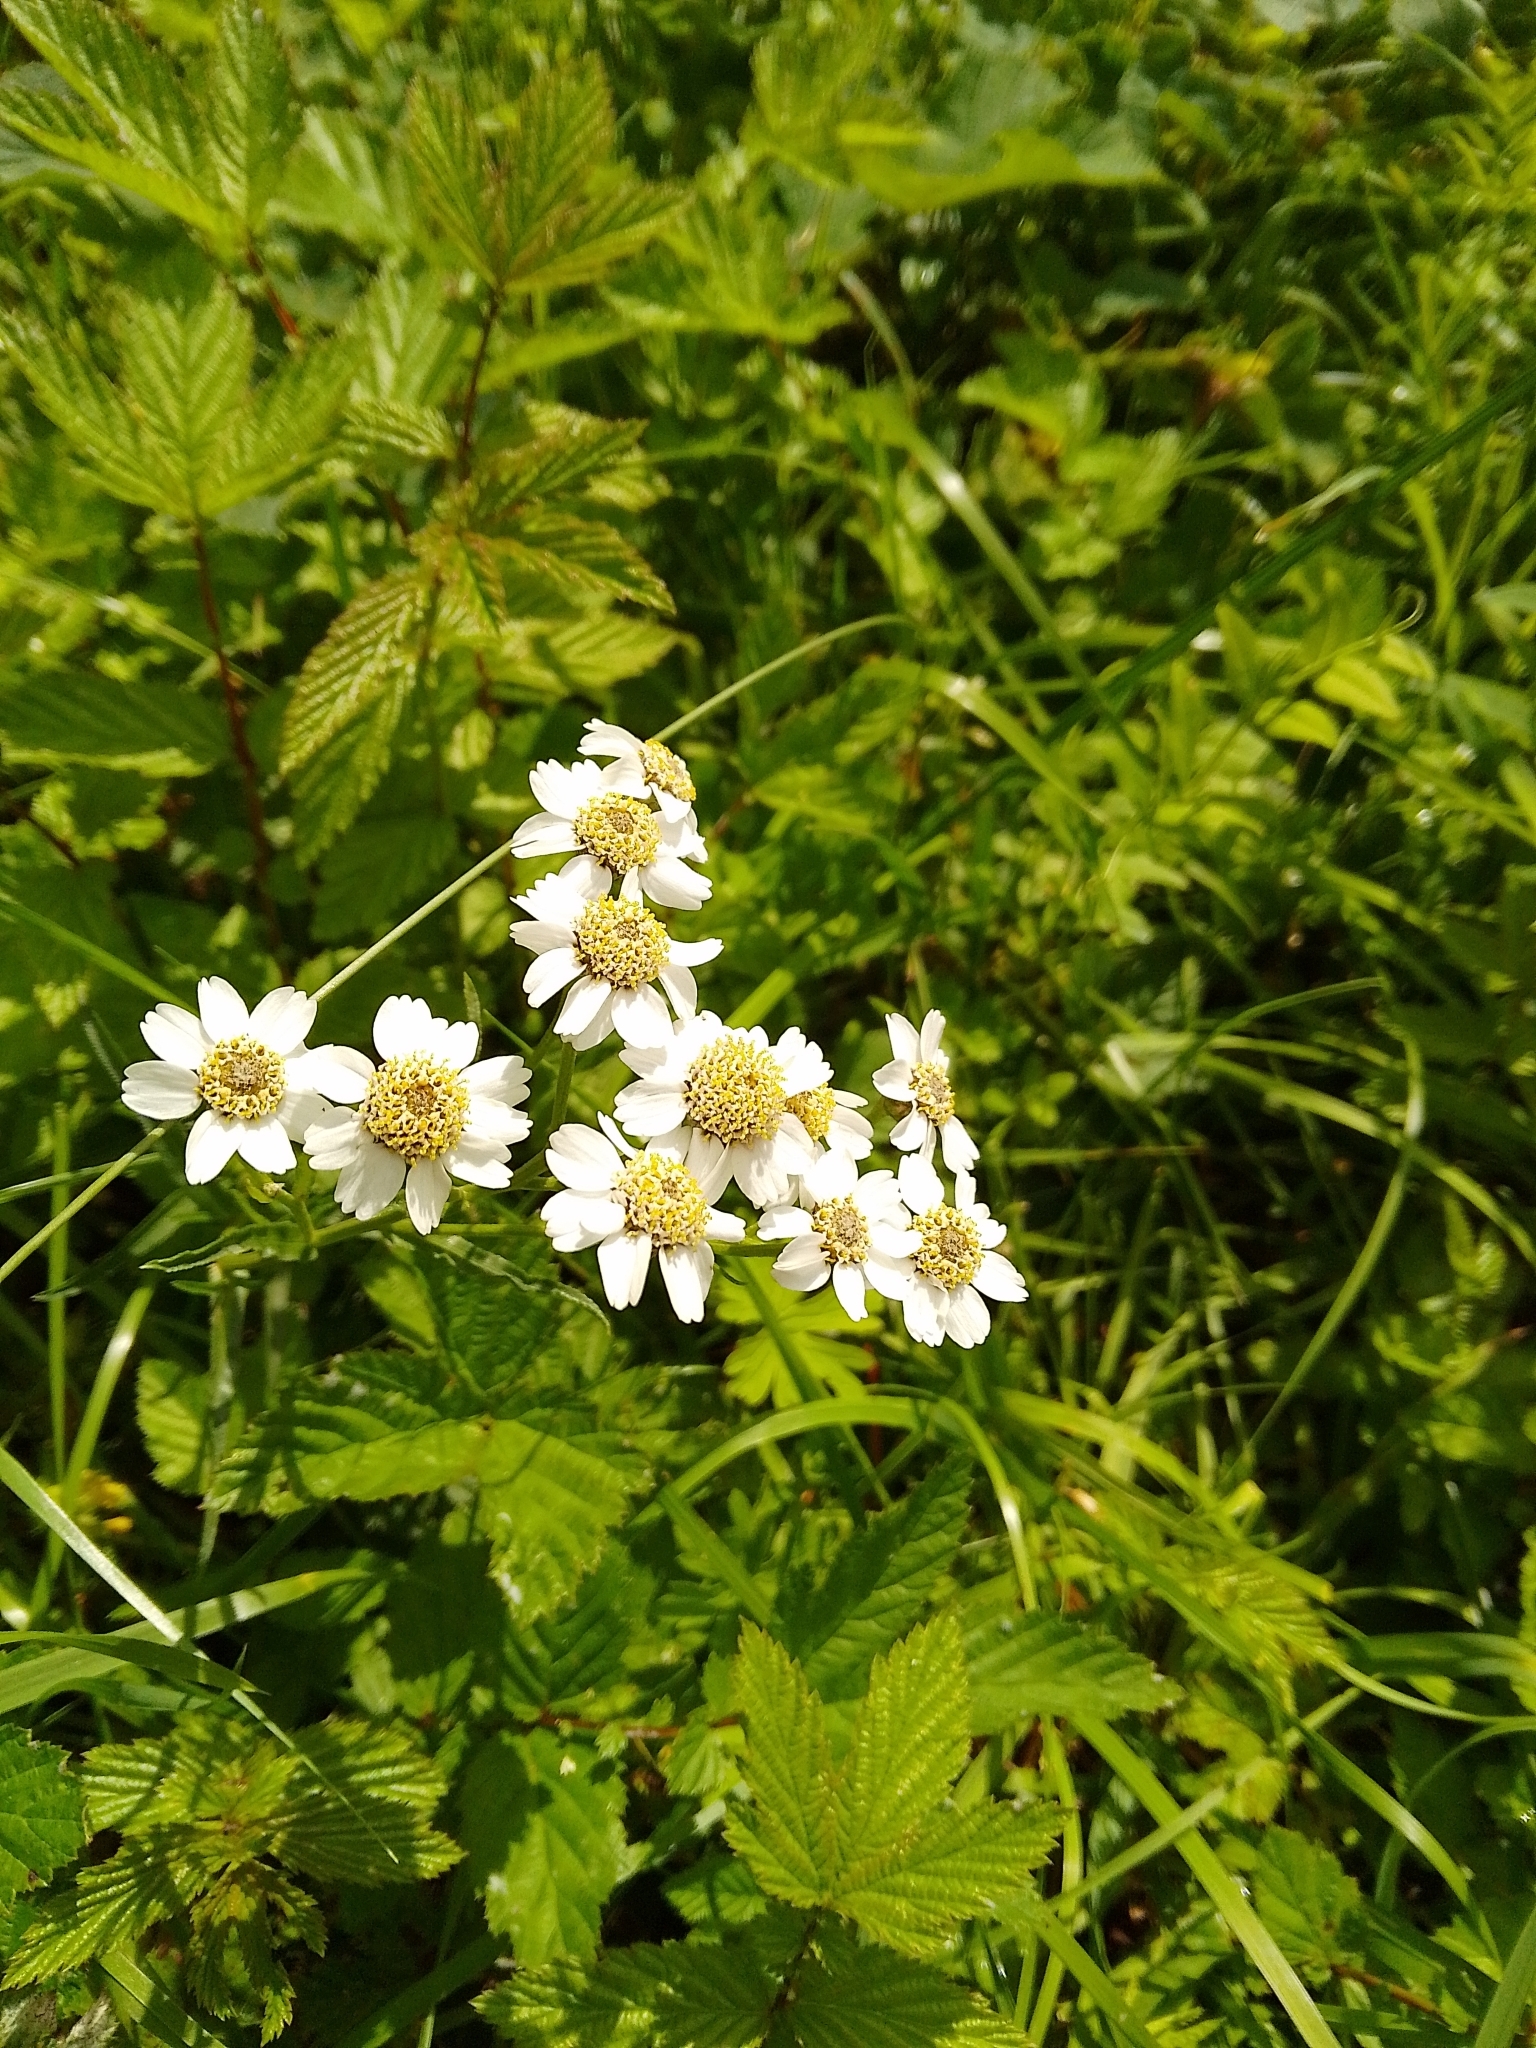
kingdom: Plantae
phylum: Tracheophyta
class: Magnoliopsida
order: Asterales
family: Asteraceae
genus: Achillea
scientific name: Achillea ptarmica
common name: Sneezeweed
